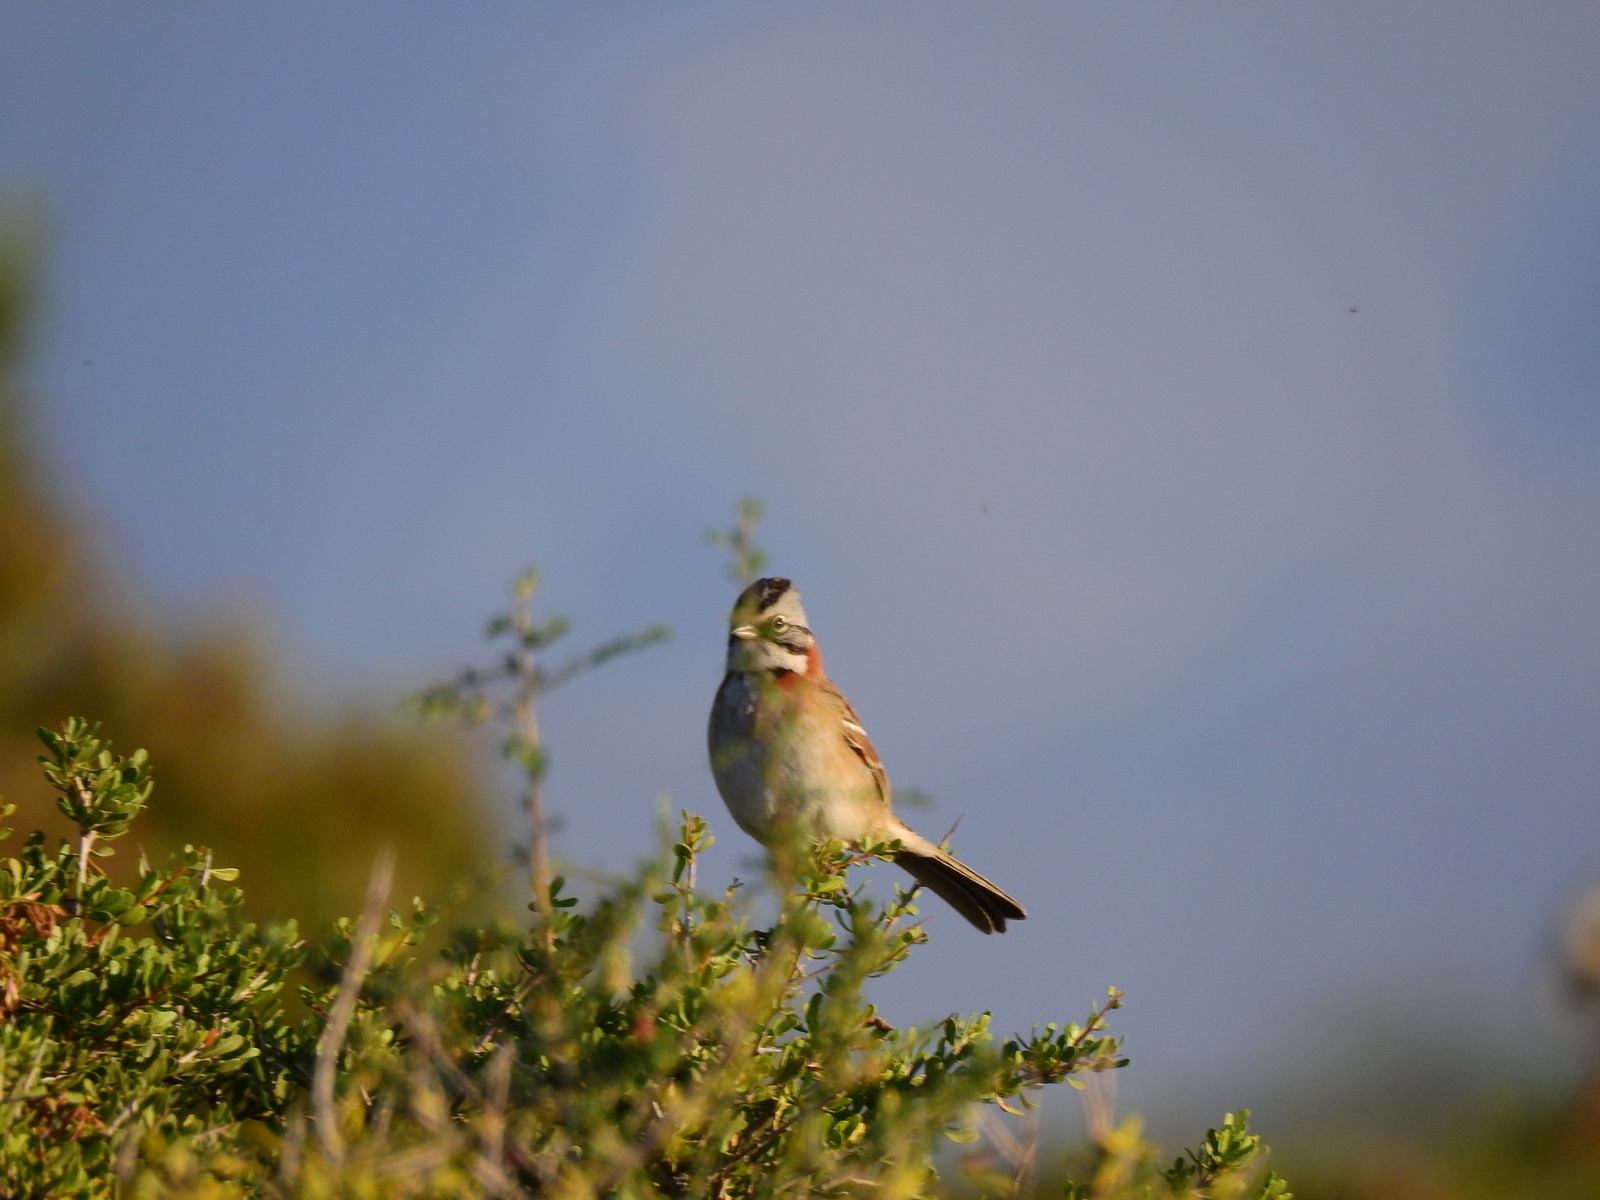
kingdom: Animalia
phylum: Chordata
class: Aves
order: Passeriformes
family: Passerellidae
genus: Zonotrichia
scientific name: Zonotrichia capensis
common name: Rufous-collared sparrow
